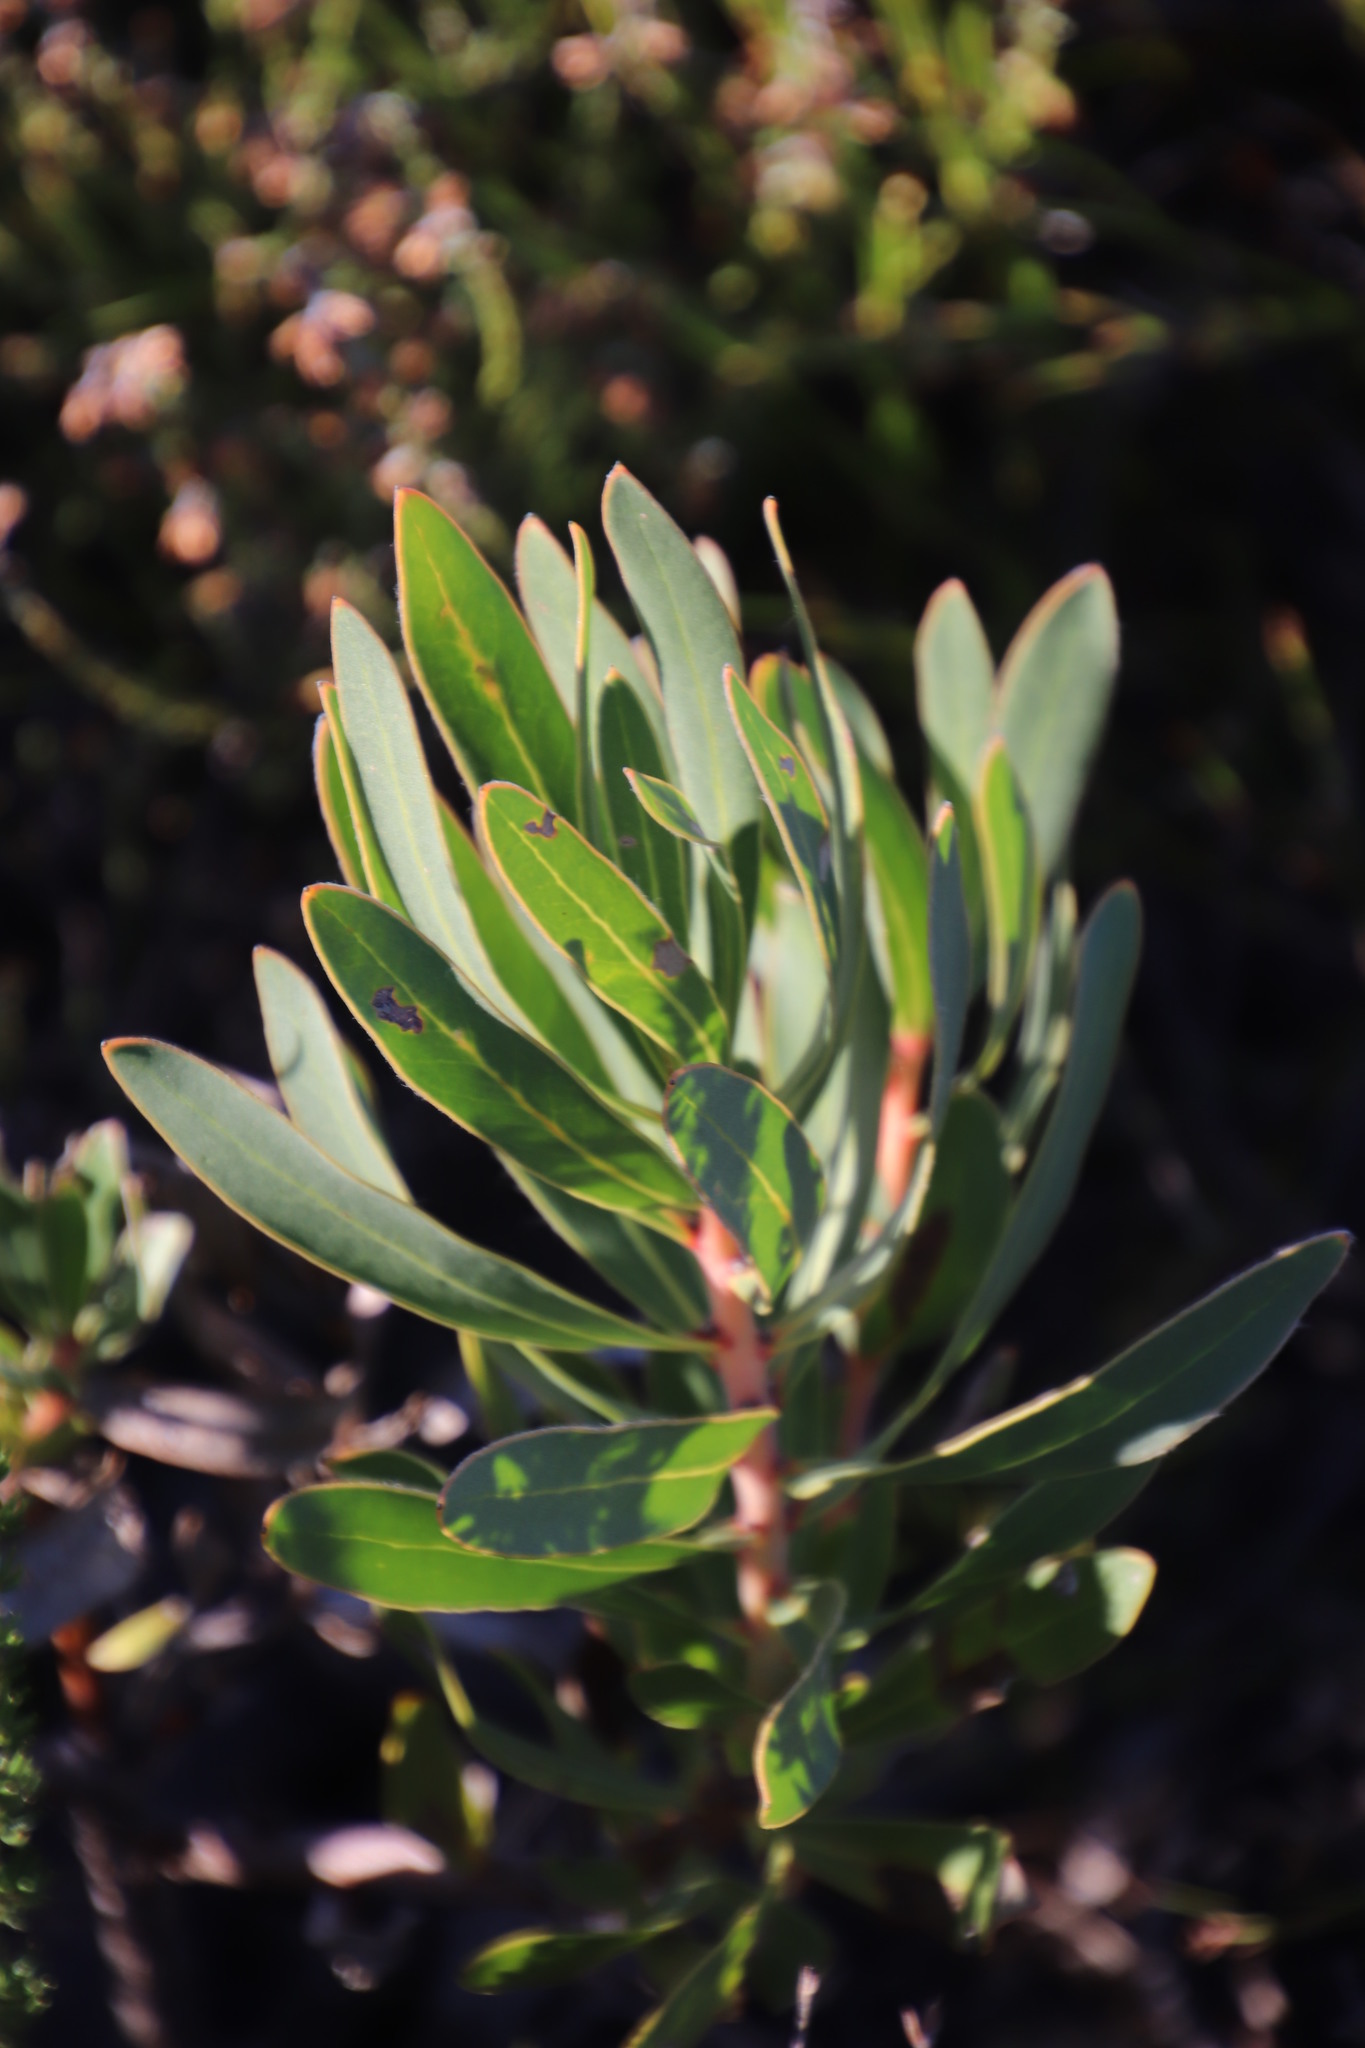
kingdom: Plantae
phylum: Tracheophyta
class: Magnoliopsida
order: Proteales
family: Proteaceae
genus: Protea
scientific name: Protea lepidocarpodendron
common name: Black-bearded protea
